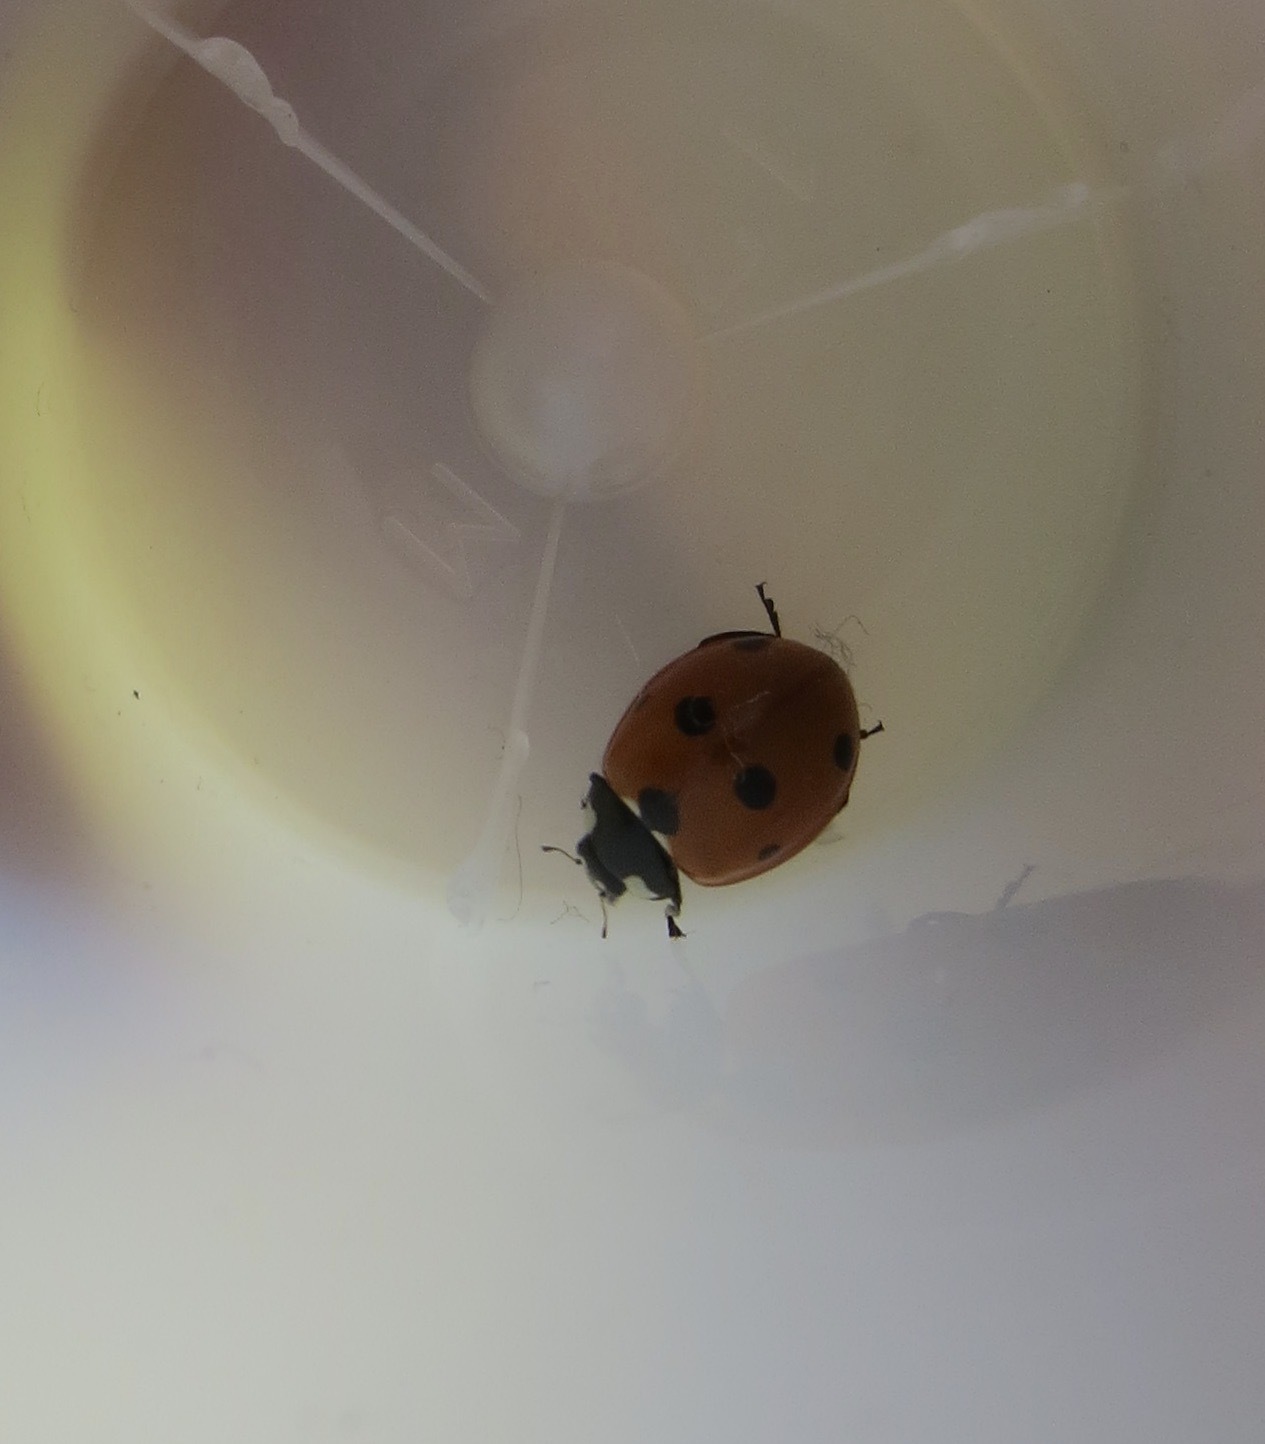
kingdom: Animalia
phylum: Arthropoda
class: Insecta
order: Coleoptera
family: Coccinellidae
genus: Coccinella
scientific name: Coccinella septempunctata
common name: Sevenspotted lady beetle
